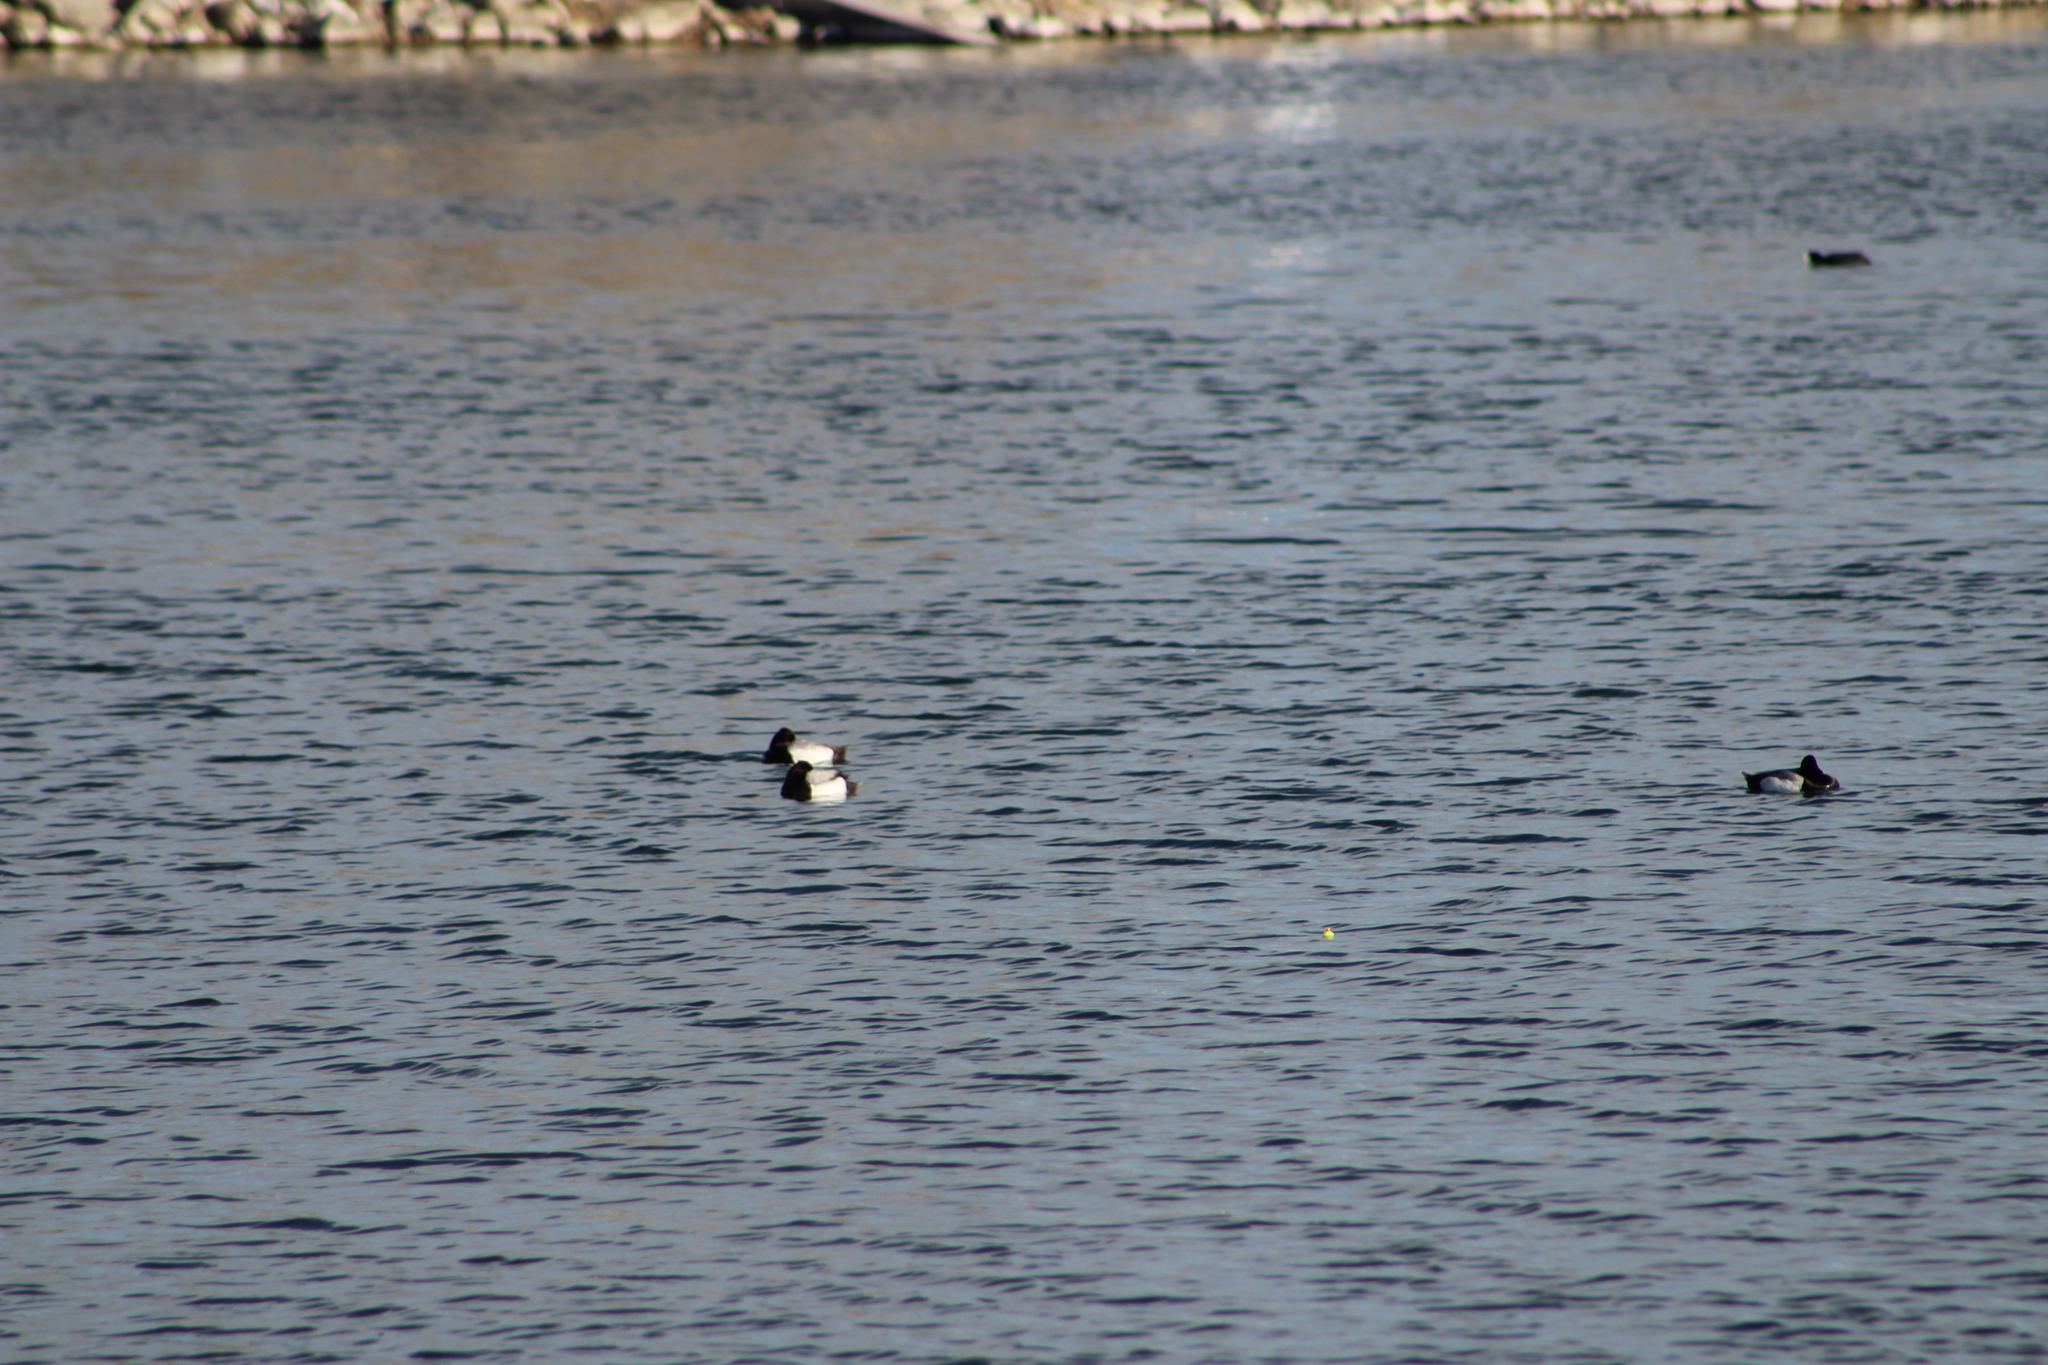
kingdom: Animalia
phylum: Chordata
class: Aves
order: Anseriformes
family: Anatidae
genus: Aythya
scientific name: Aythya collaris
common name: Ring-necked duck
